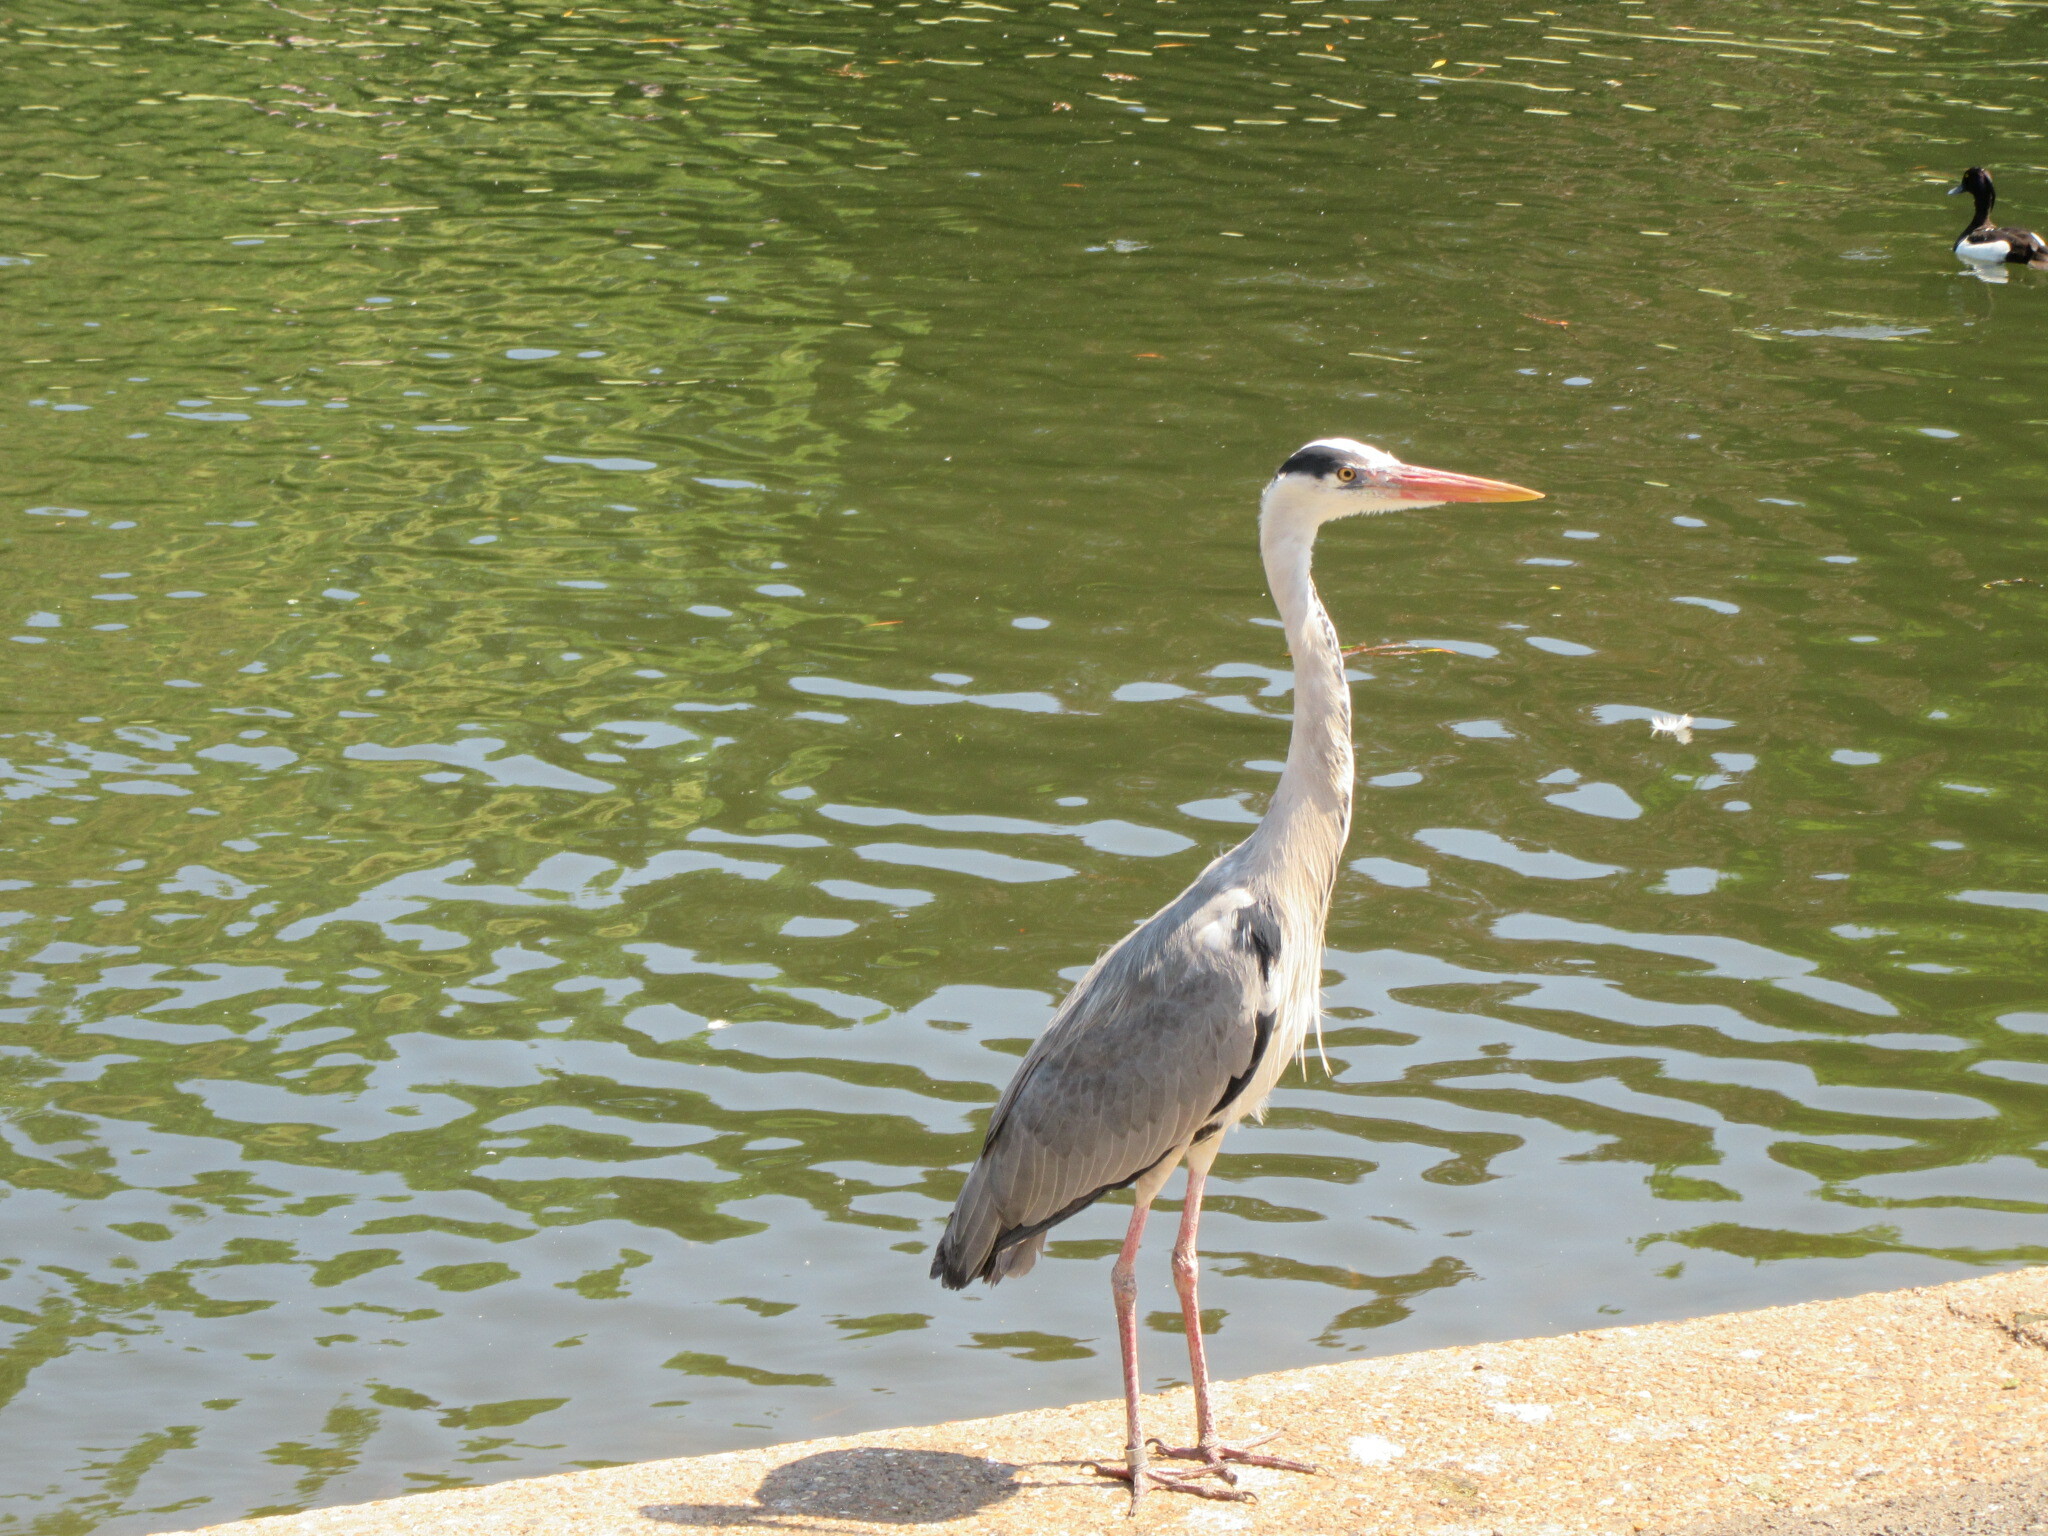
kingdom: Animalia
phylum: Chordata
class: Aves
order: Pelecaniformes
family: Ardeidae
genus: Ardea
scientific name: Ardea cinerea
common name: Grey heron
